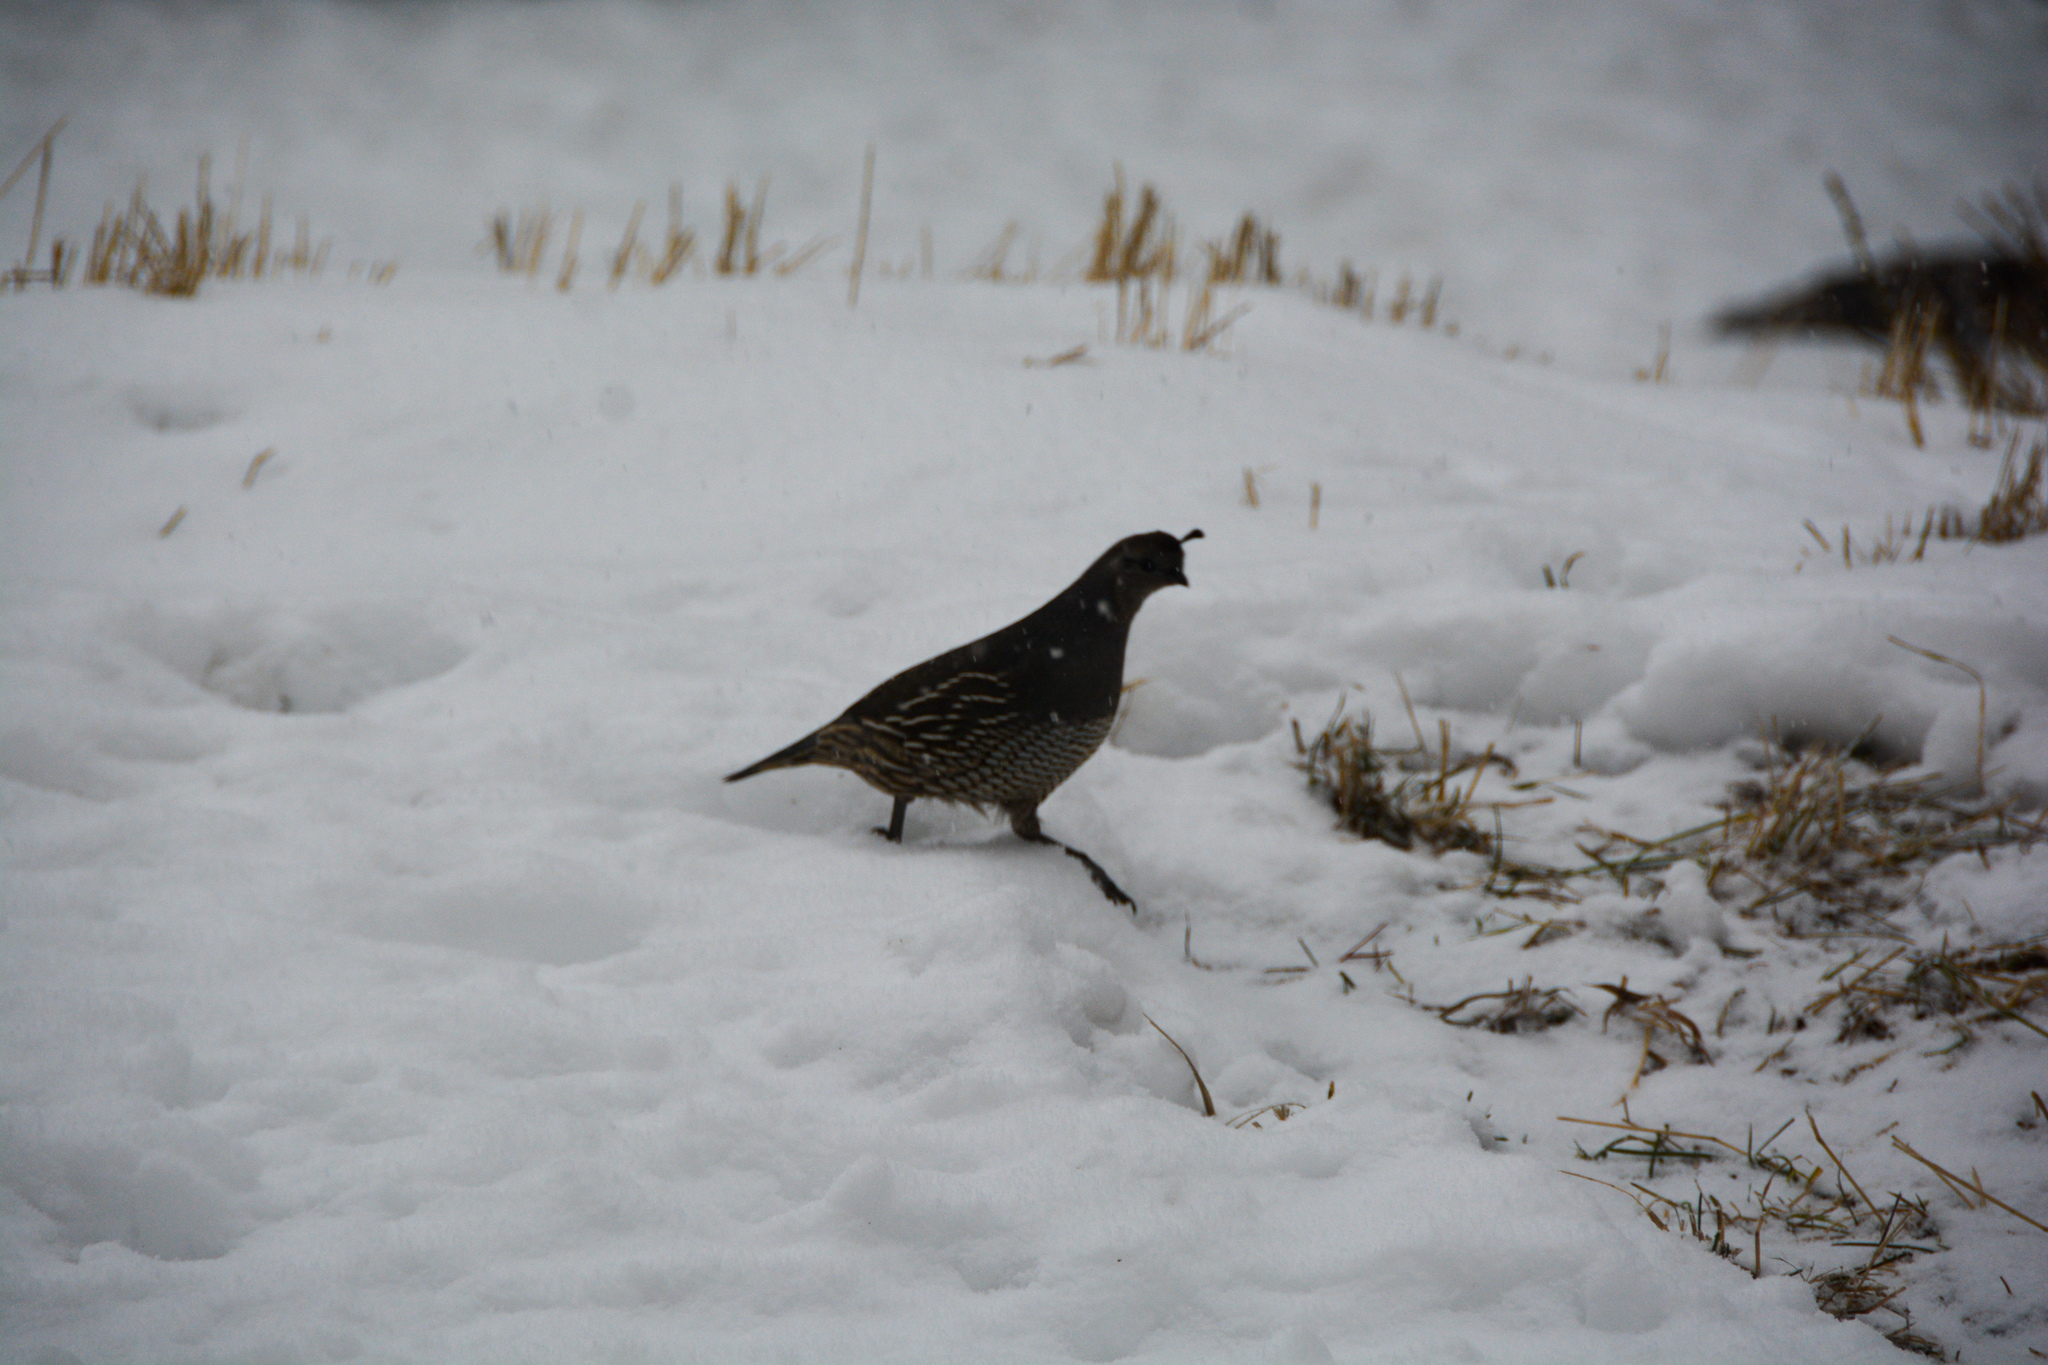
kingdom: Animalia
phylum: Chordata
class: Aves
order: Galliformes
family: Odontophoridae
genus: Callipepla
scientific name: Callipepla californica
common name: California quail
